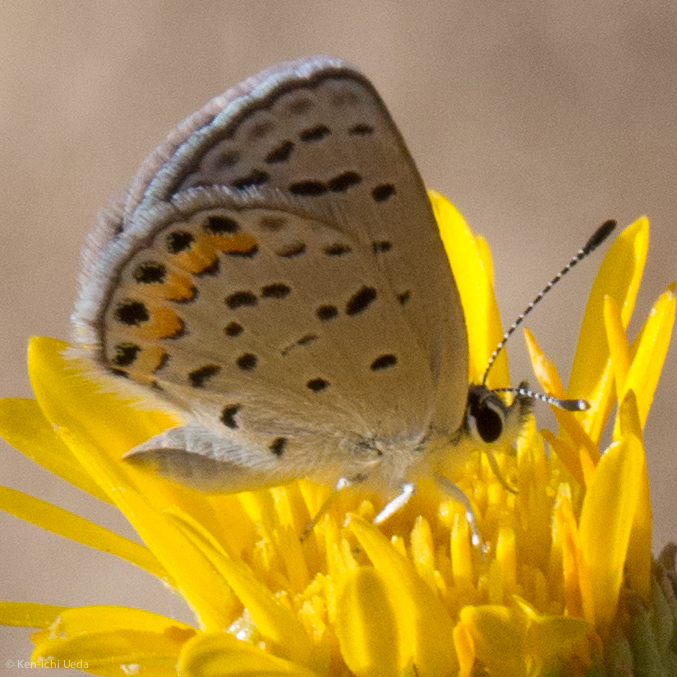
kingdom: Animalia
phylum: Arthropoda
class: Insecta
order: Lepidoptera
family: Lycaenidae
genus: Icaricia
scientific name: Icaricia acmon
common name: Acmon blue
